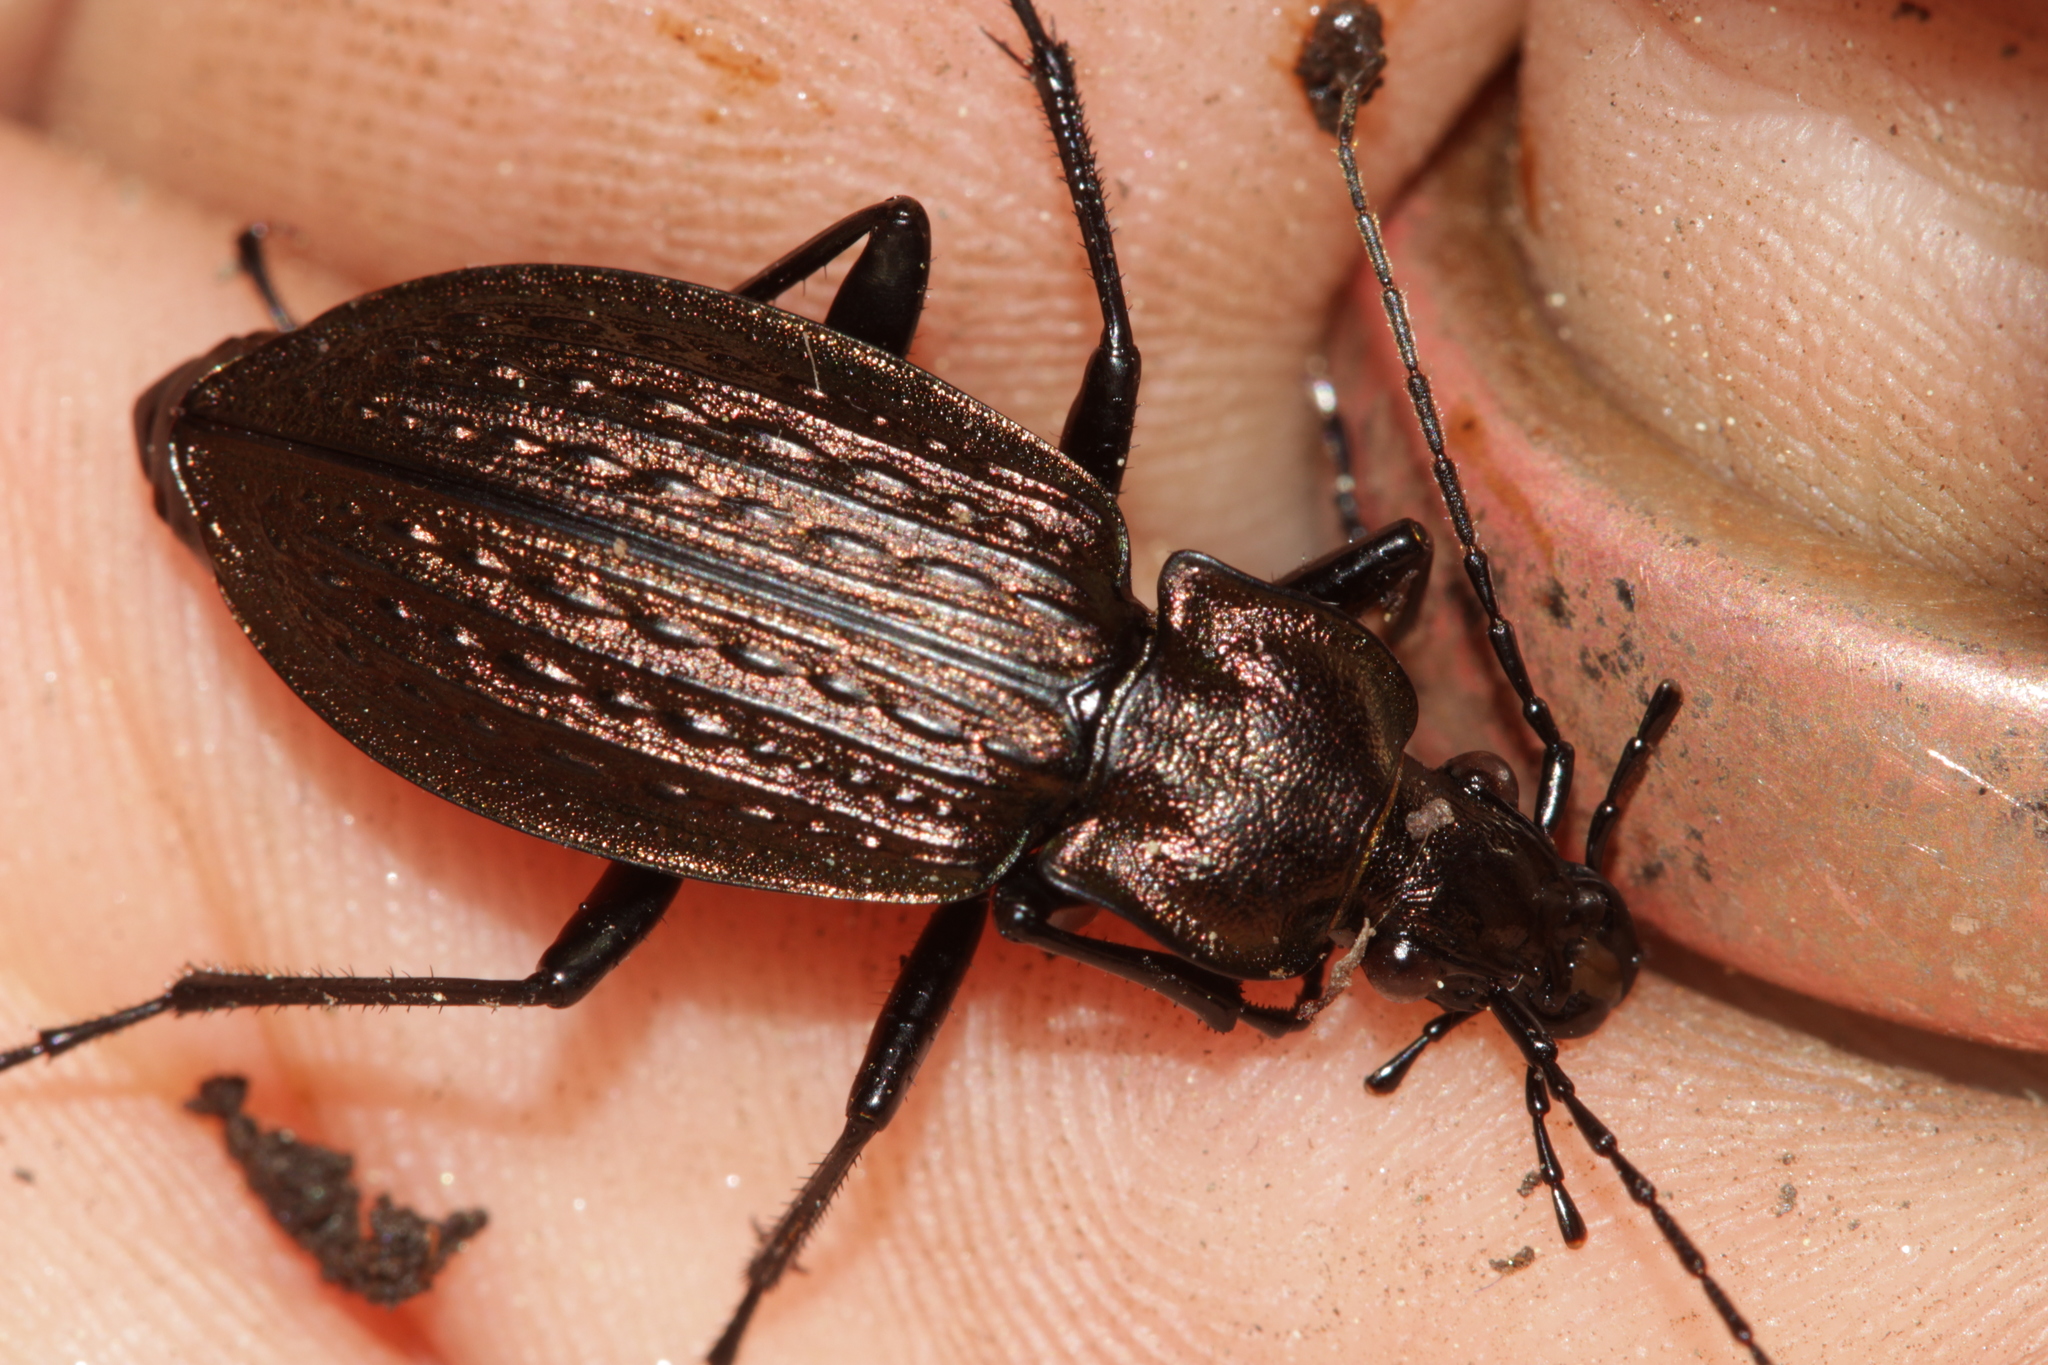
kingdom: Animalia
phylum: Arthropoda
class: Insecta
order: Coleoptera
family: Carabidae
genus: Carabus
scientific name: Carabus granulatus
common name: Granulate ground beetle
